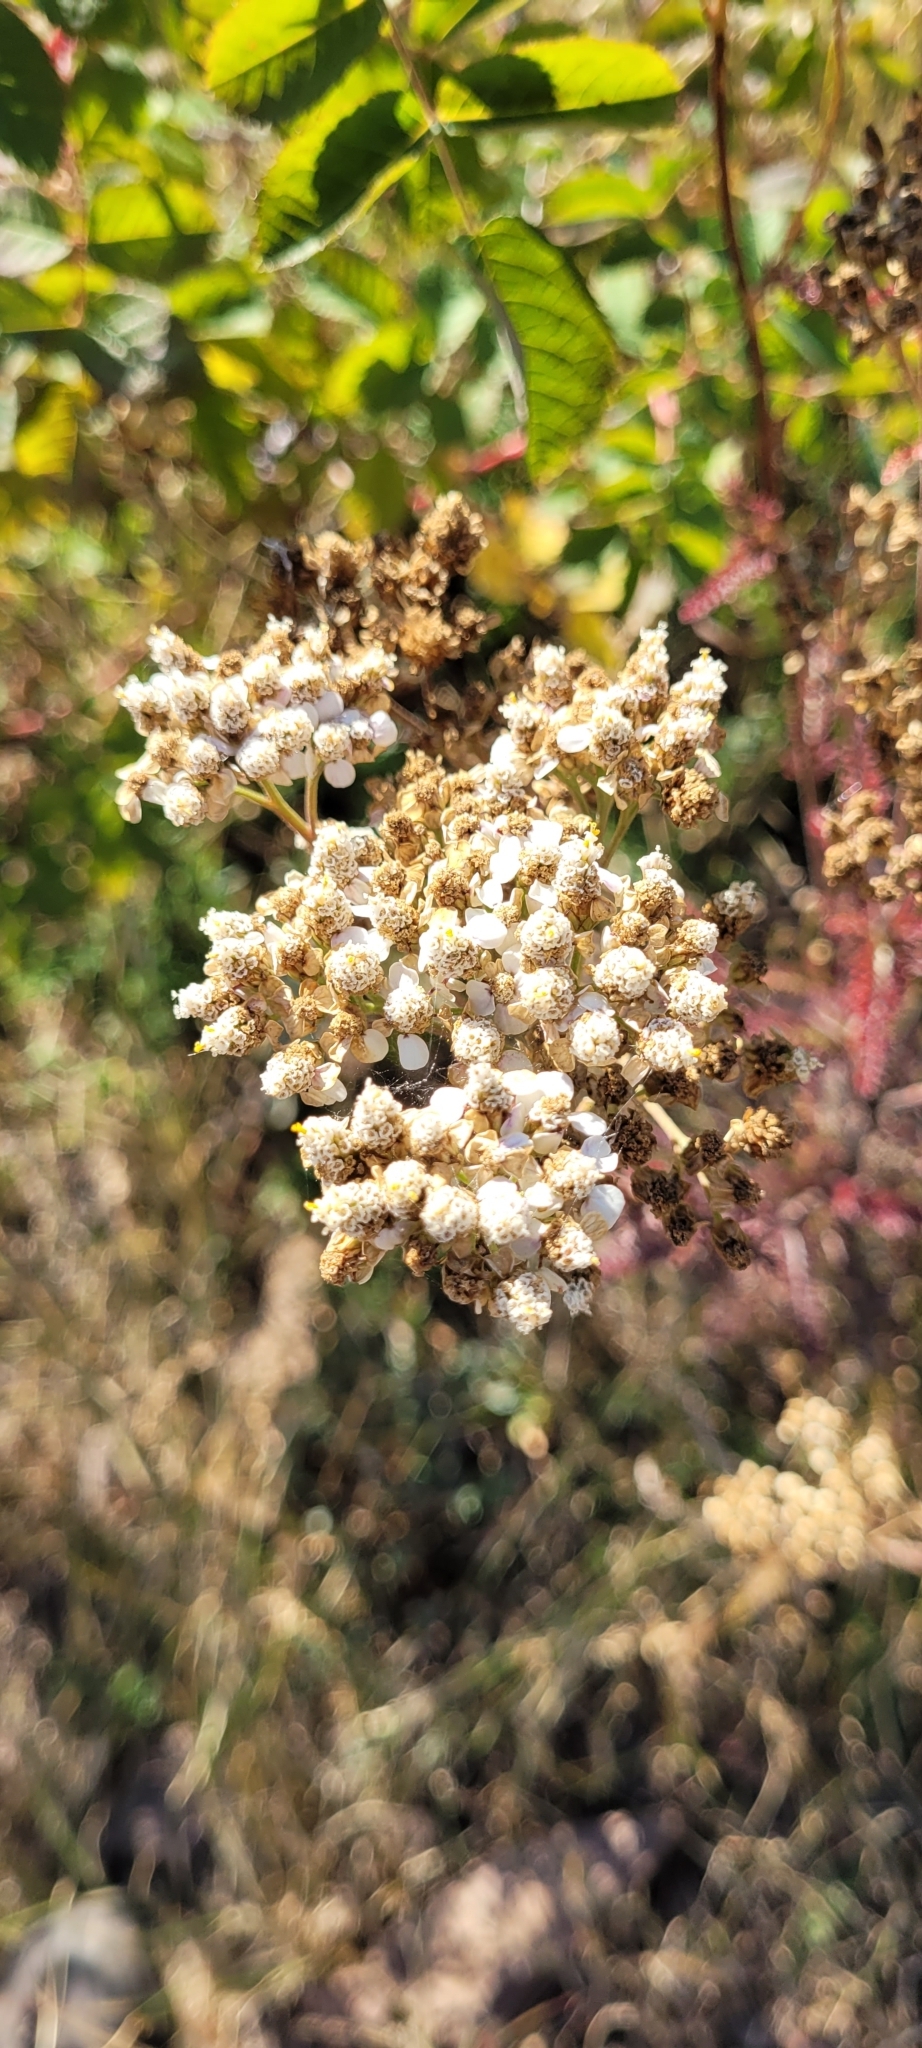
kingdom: Plantae
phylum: Tracheophyta
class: Magnoliopsida
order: Asterales
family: Asteraceae
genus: Achillea
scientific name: Achillea millefolium
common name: Yarrow
